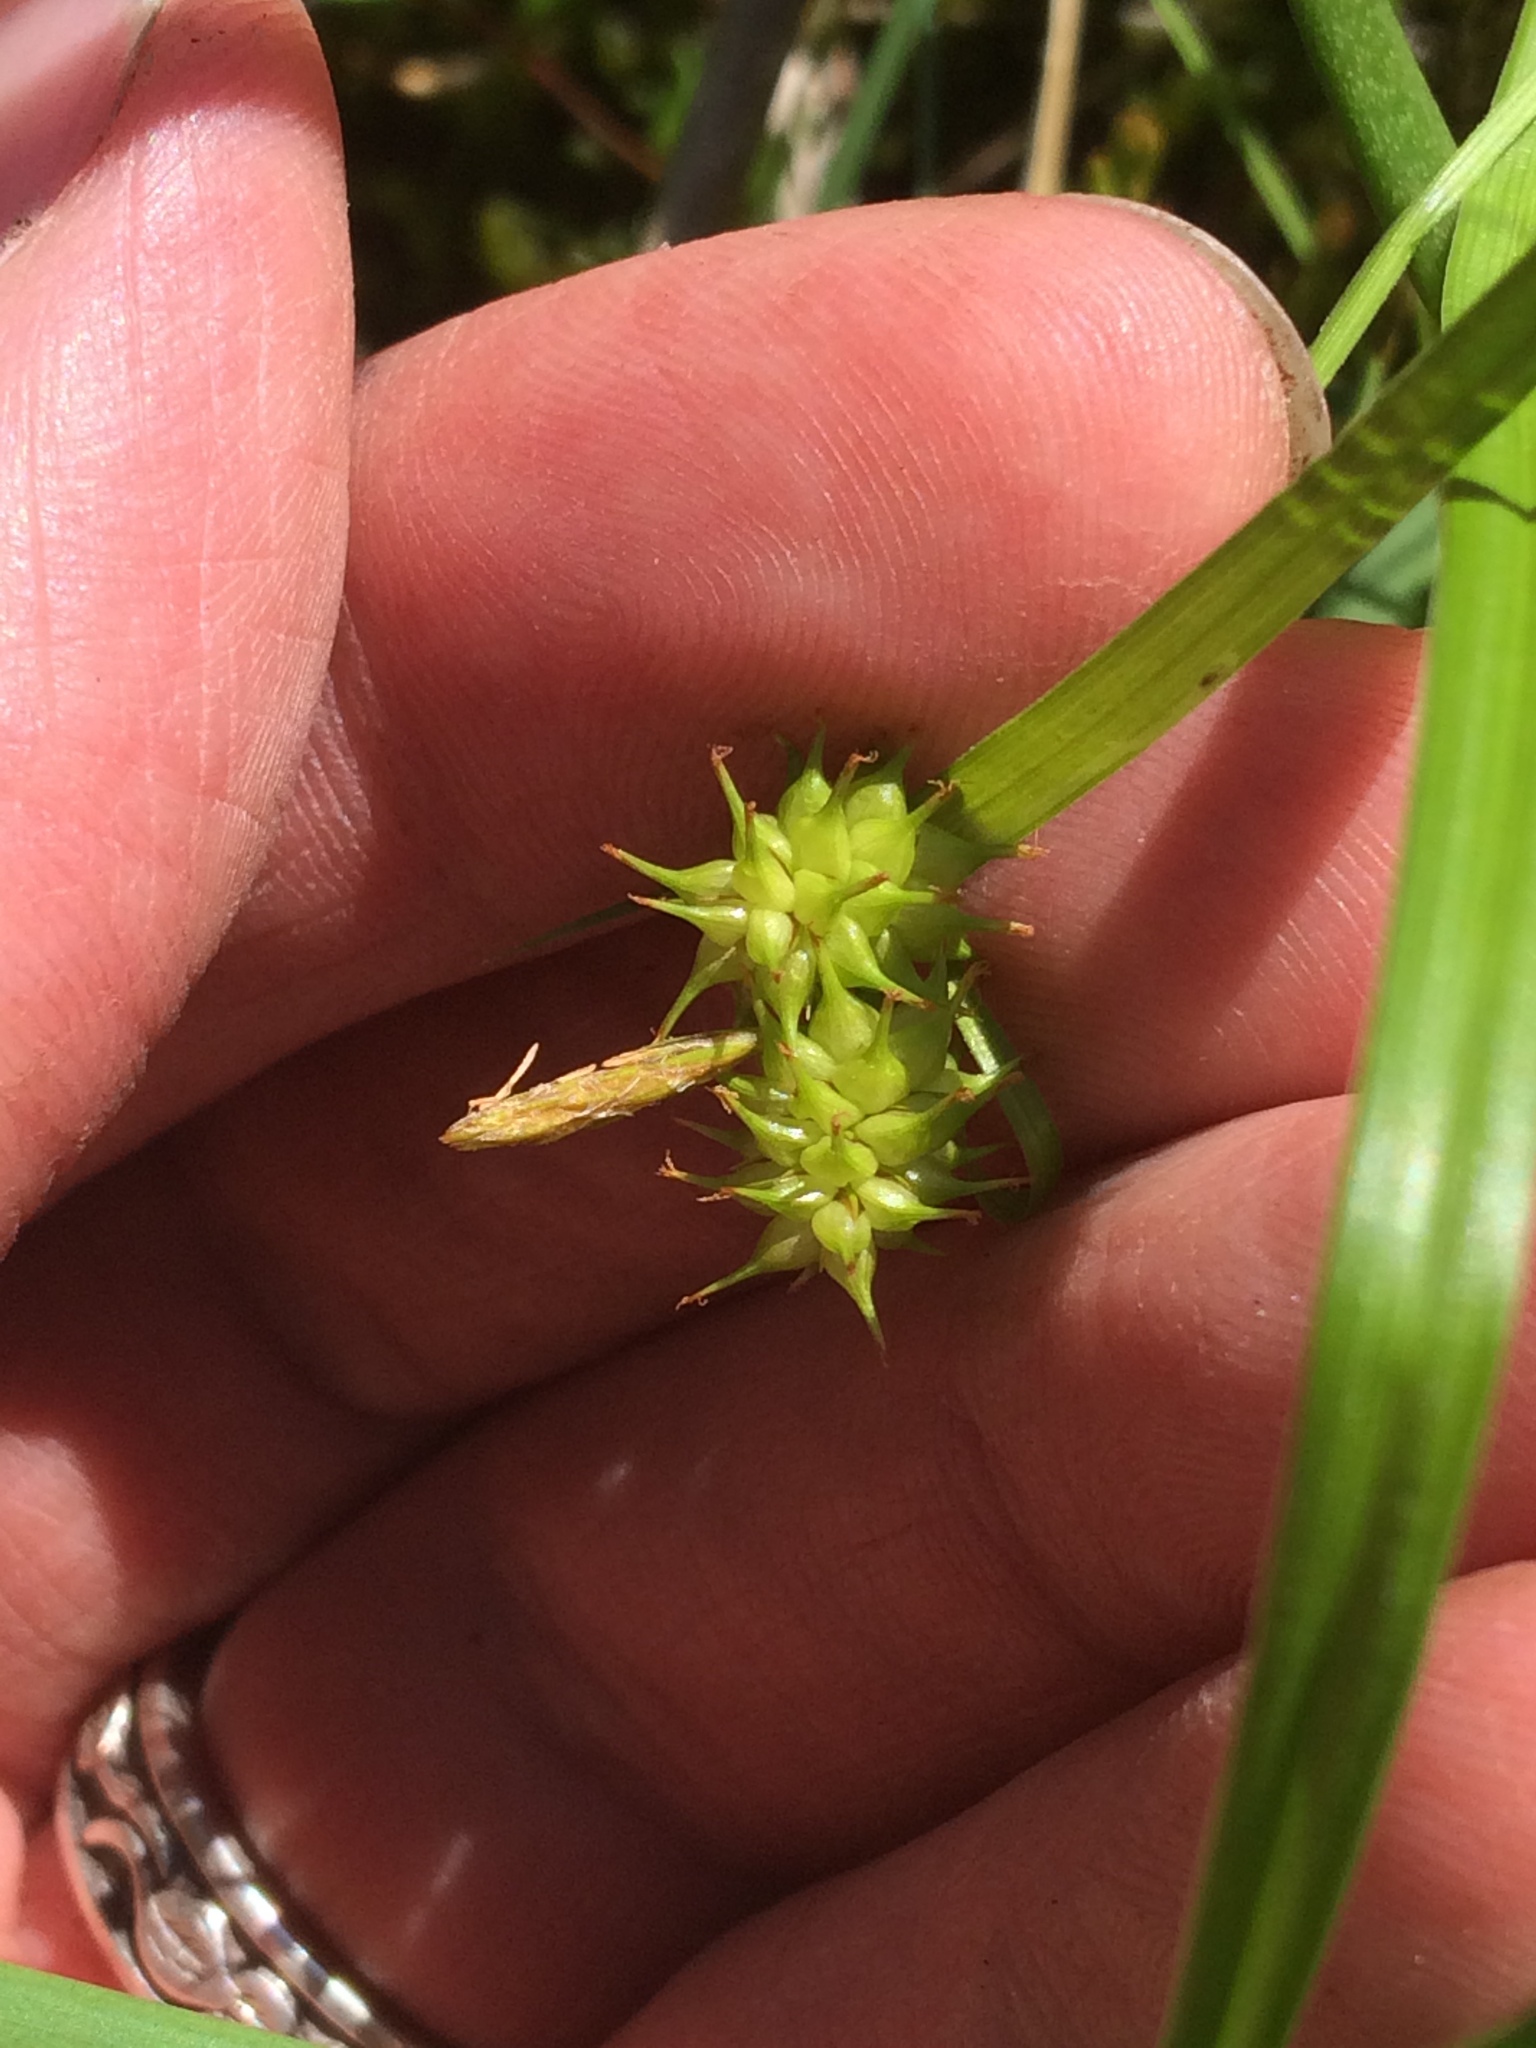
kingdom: Plantae
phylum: Tracheophyta
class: Liliopsida
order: Poales
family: Cyperaceae
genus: Carex
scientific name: Carex flava
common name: Large yellow-sedge
